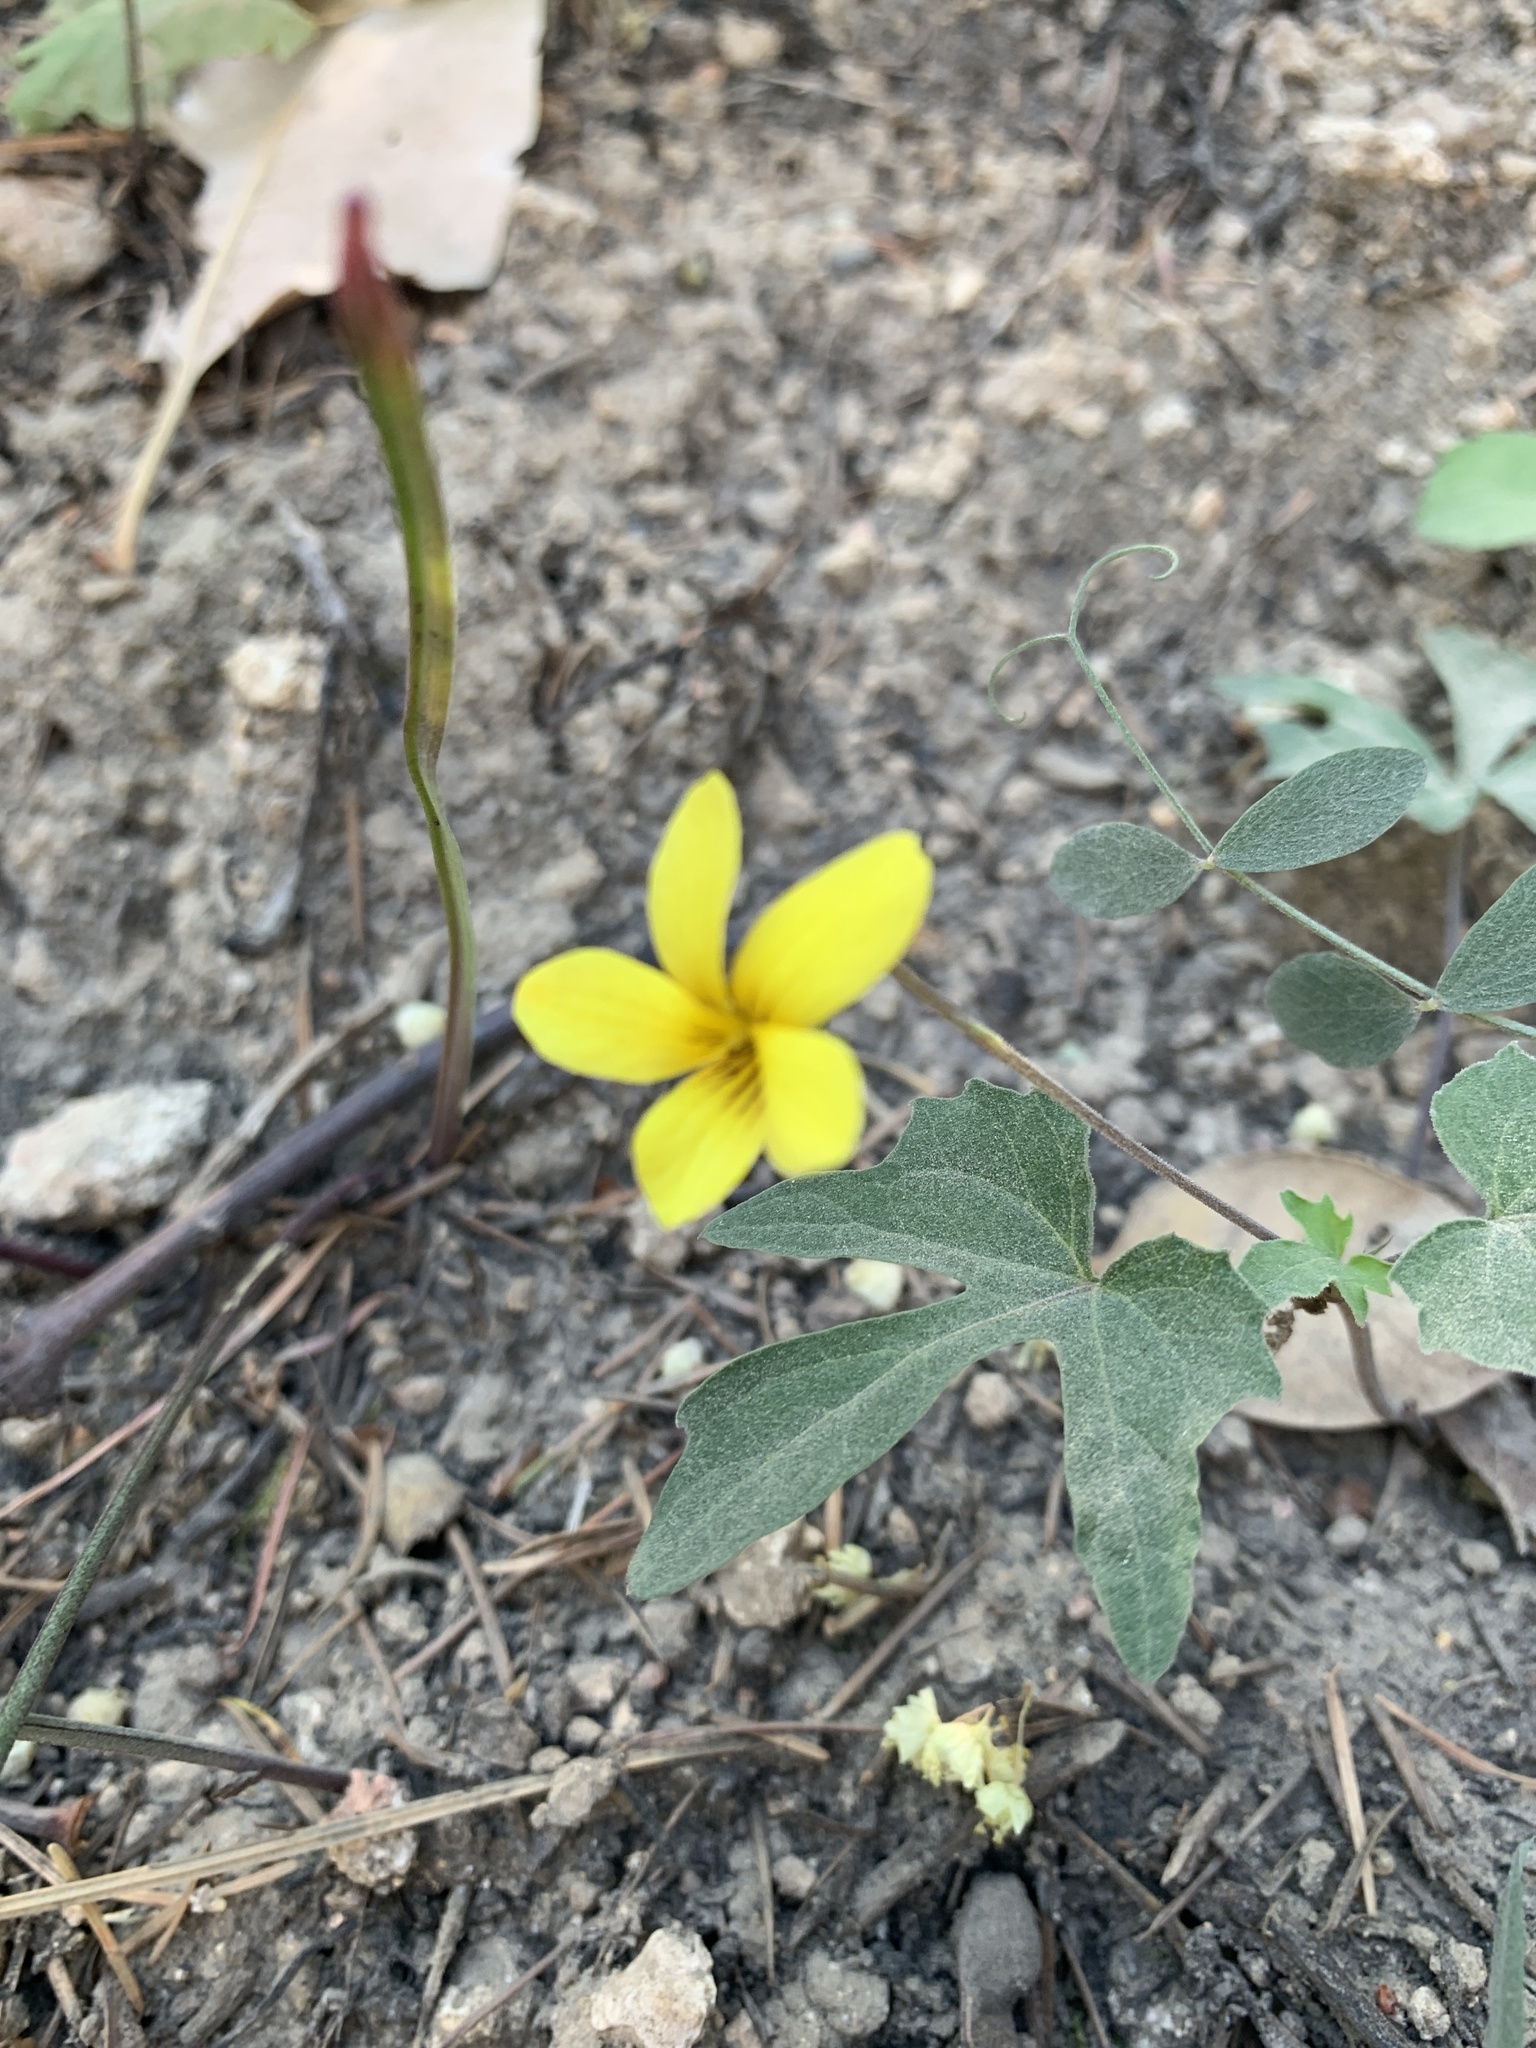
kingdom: Plantae
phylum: Tracheophyta
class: Magnoliopsida
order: Malpighiales
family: Violaceae
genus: Viola
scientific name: Viola lobata
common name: Pine violet
